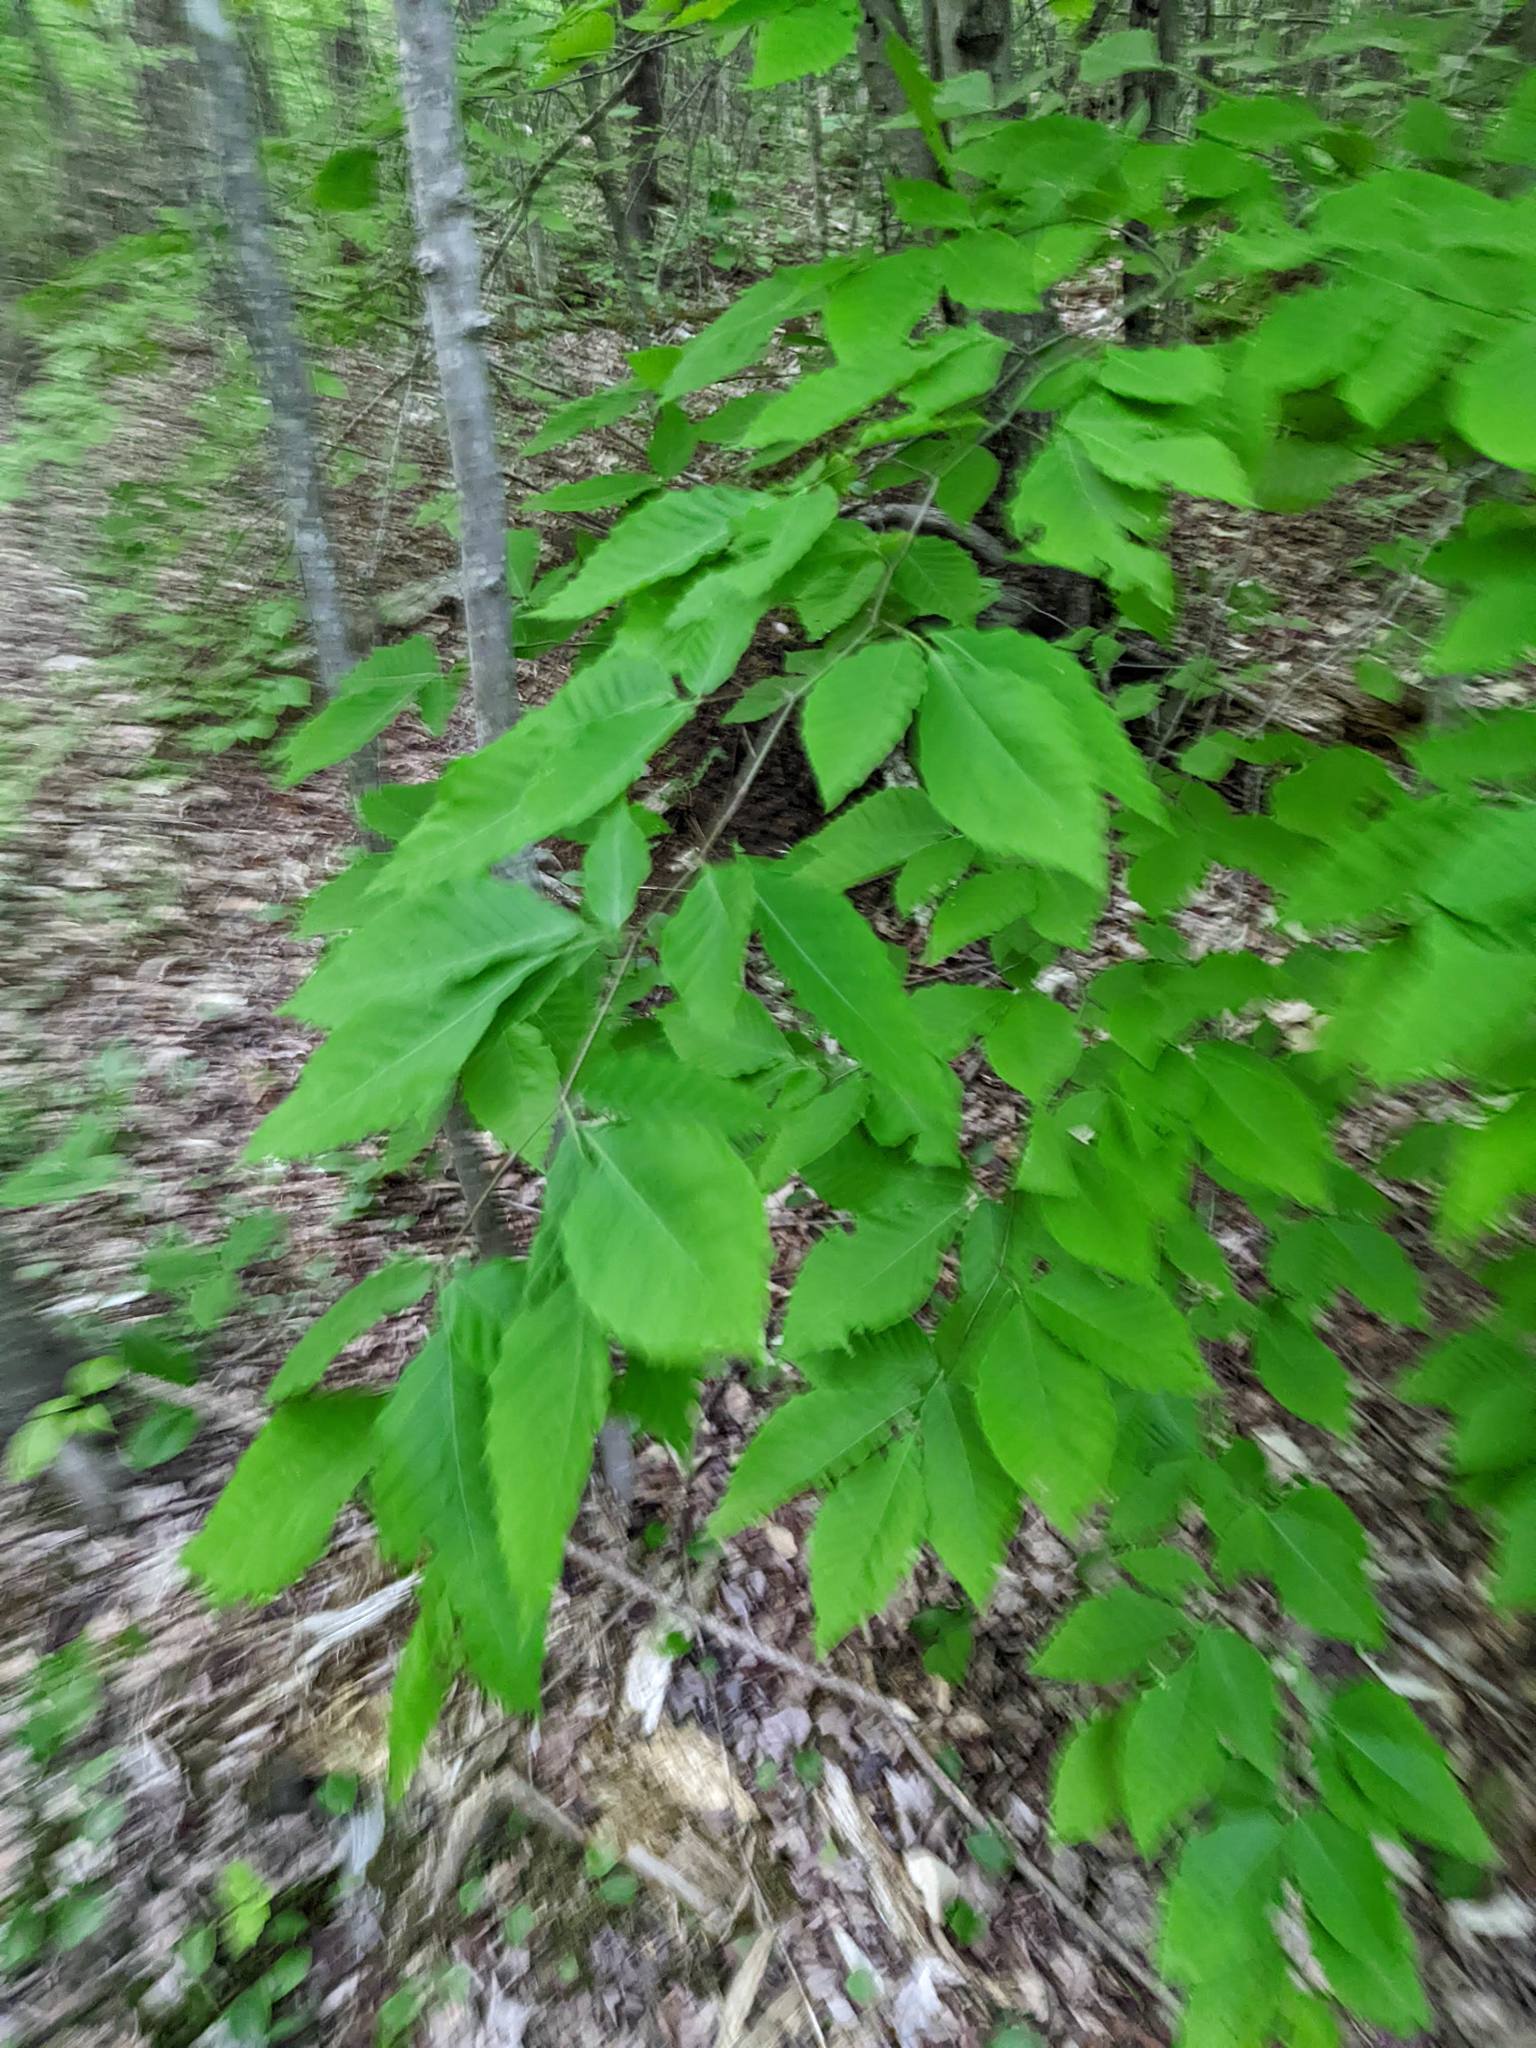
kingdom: Plantae
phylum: Tracheophyta
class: Magnoliopsida
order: Fagales
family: Fagaceae
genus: Fagus
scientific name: Fagus grandifolia
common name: American beech
